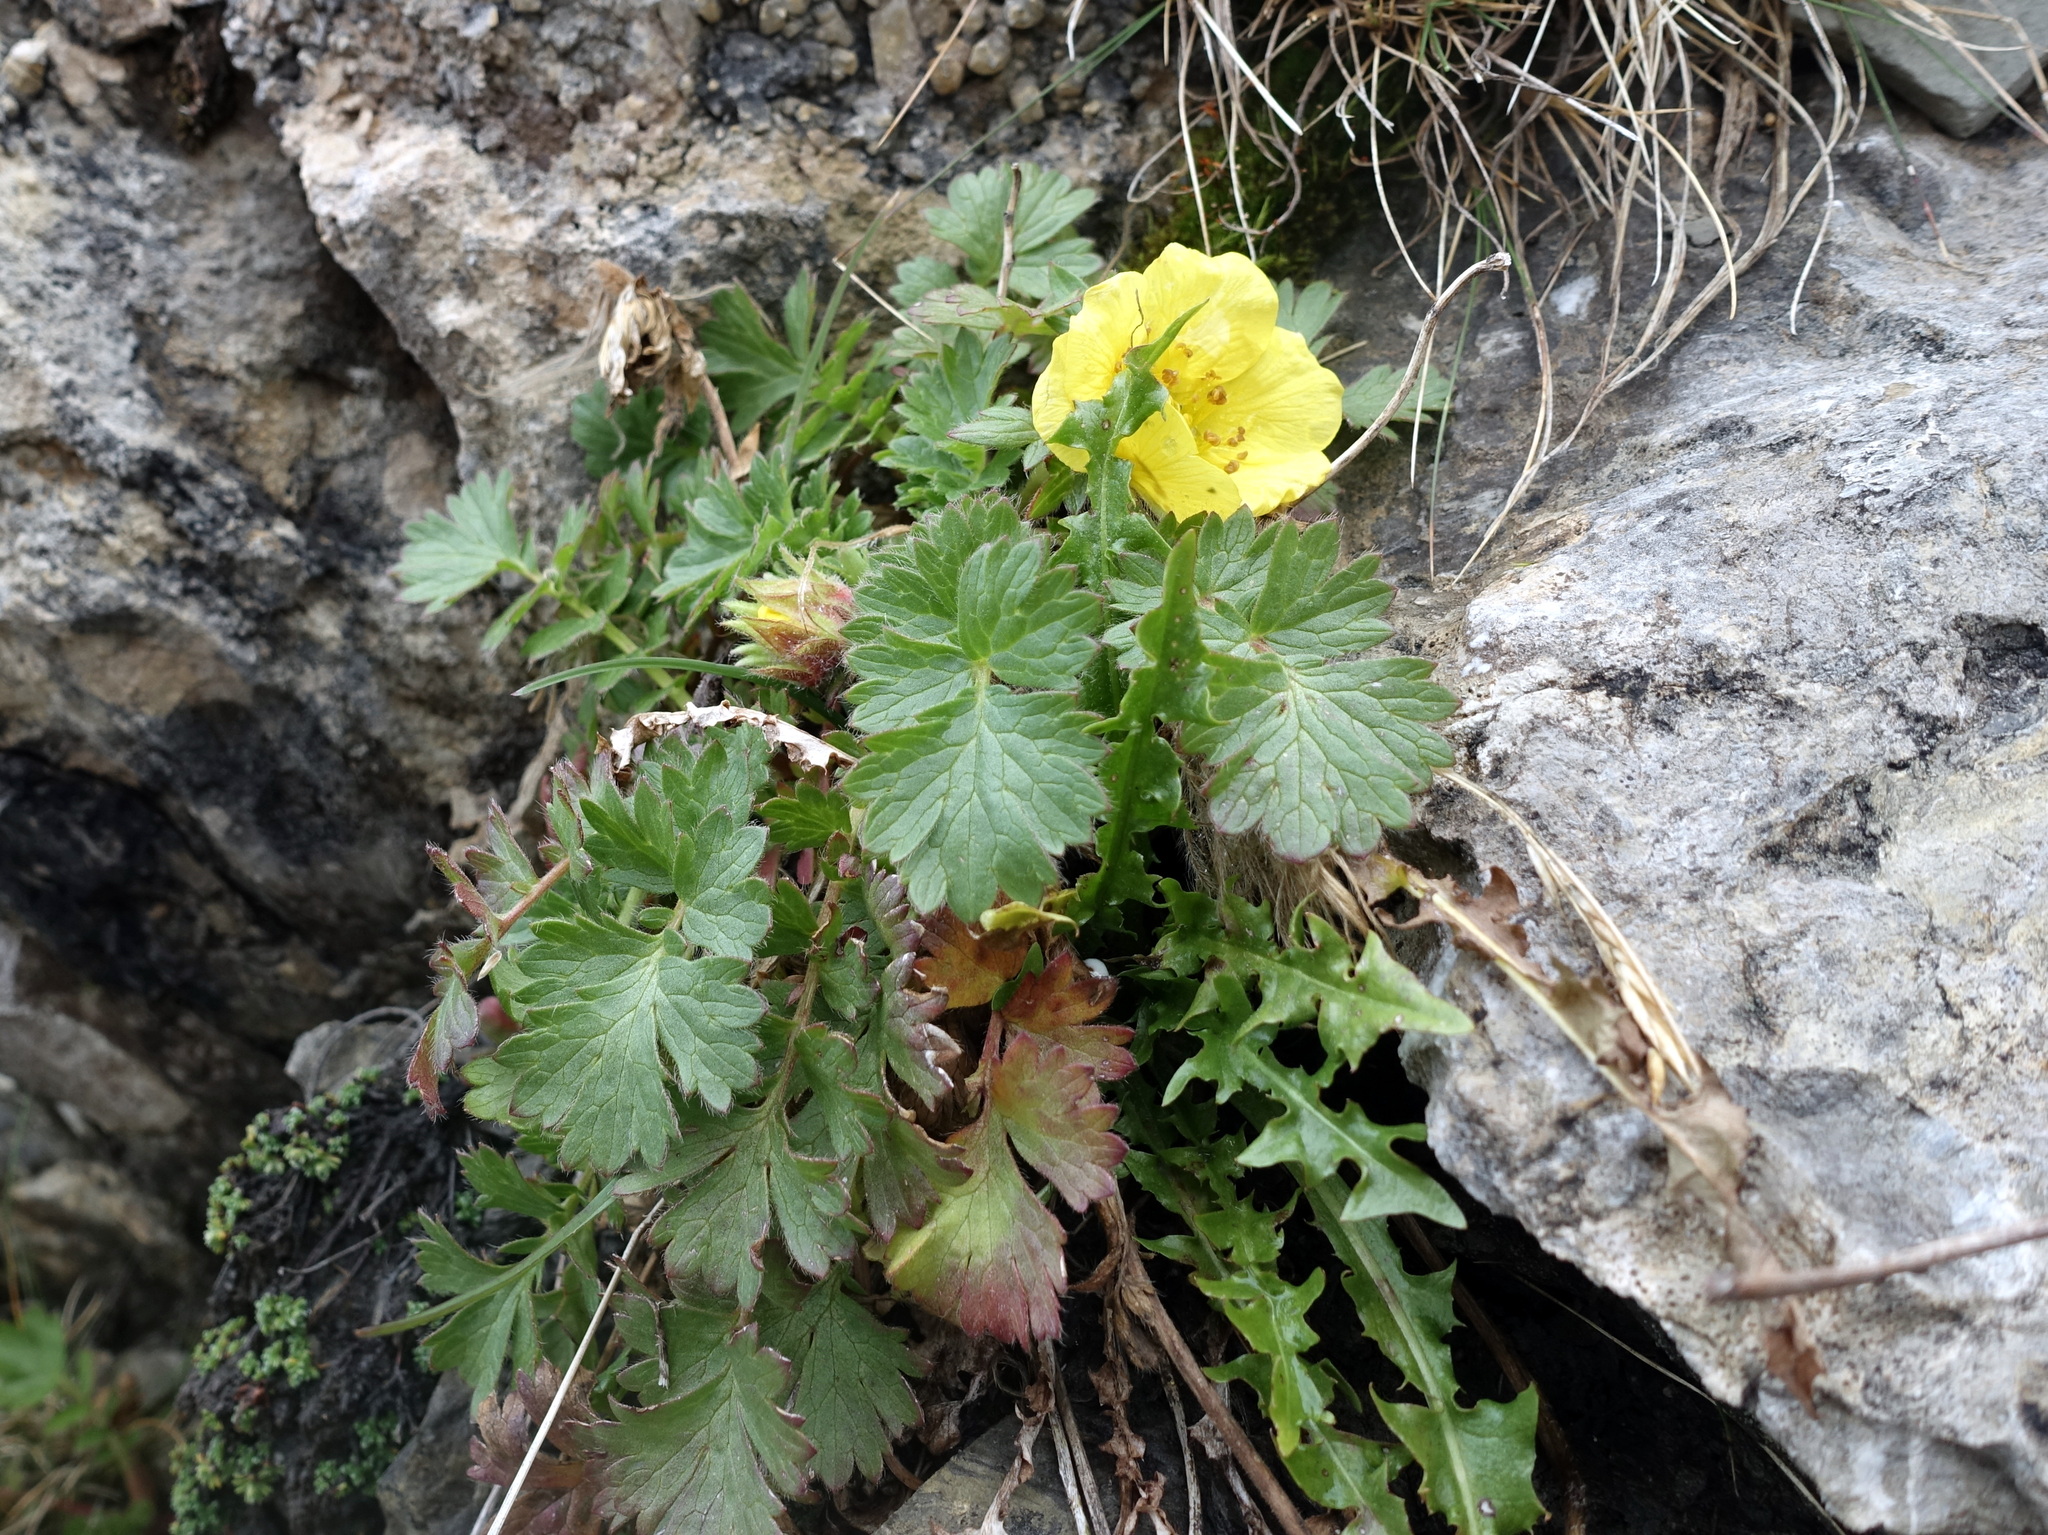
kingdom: Plantae
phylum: Tracheophyta
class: Magnoliopsida
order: Rosales
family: Rosaceae
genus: Geum
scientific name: Geum reptans
